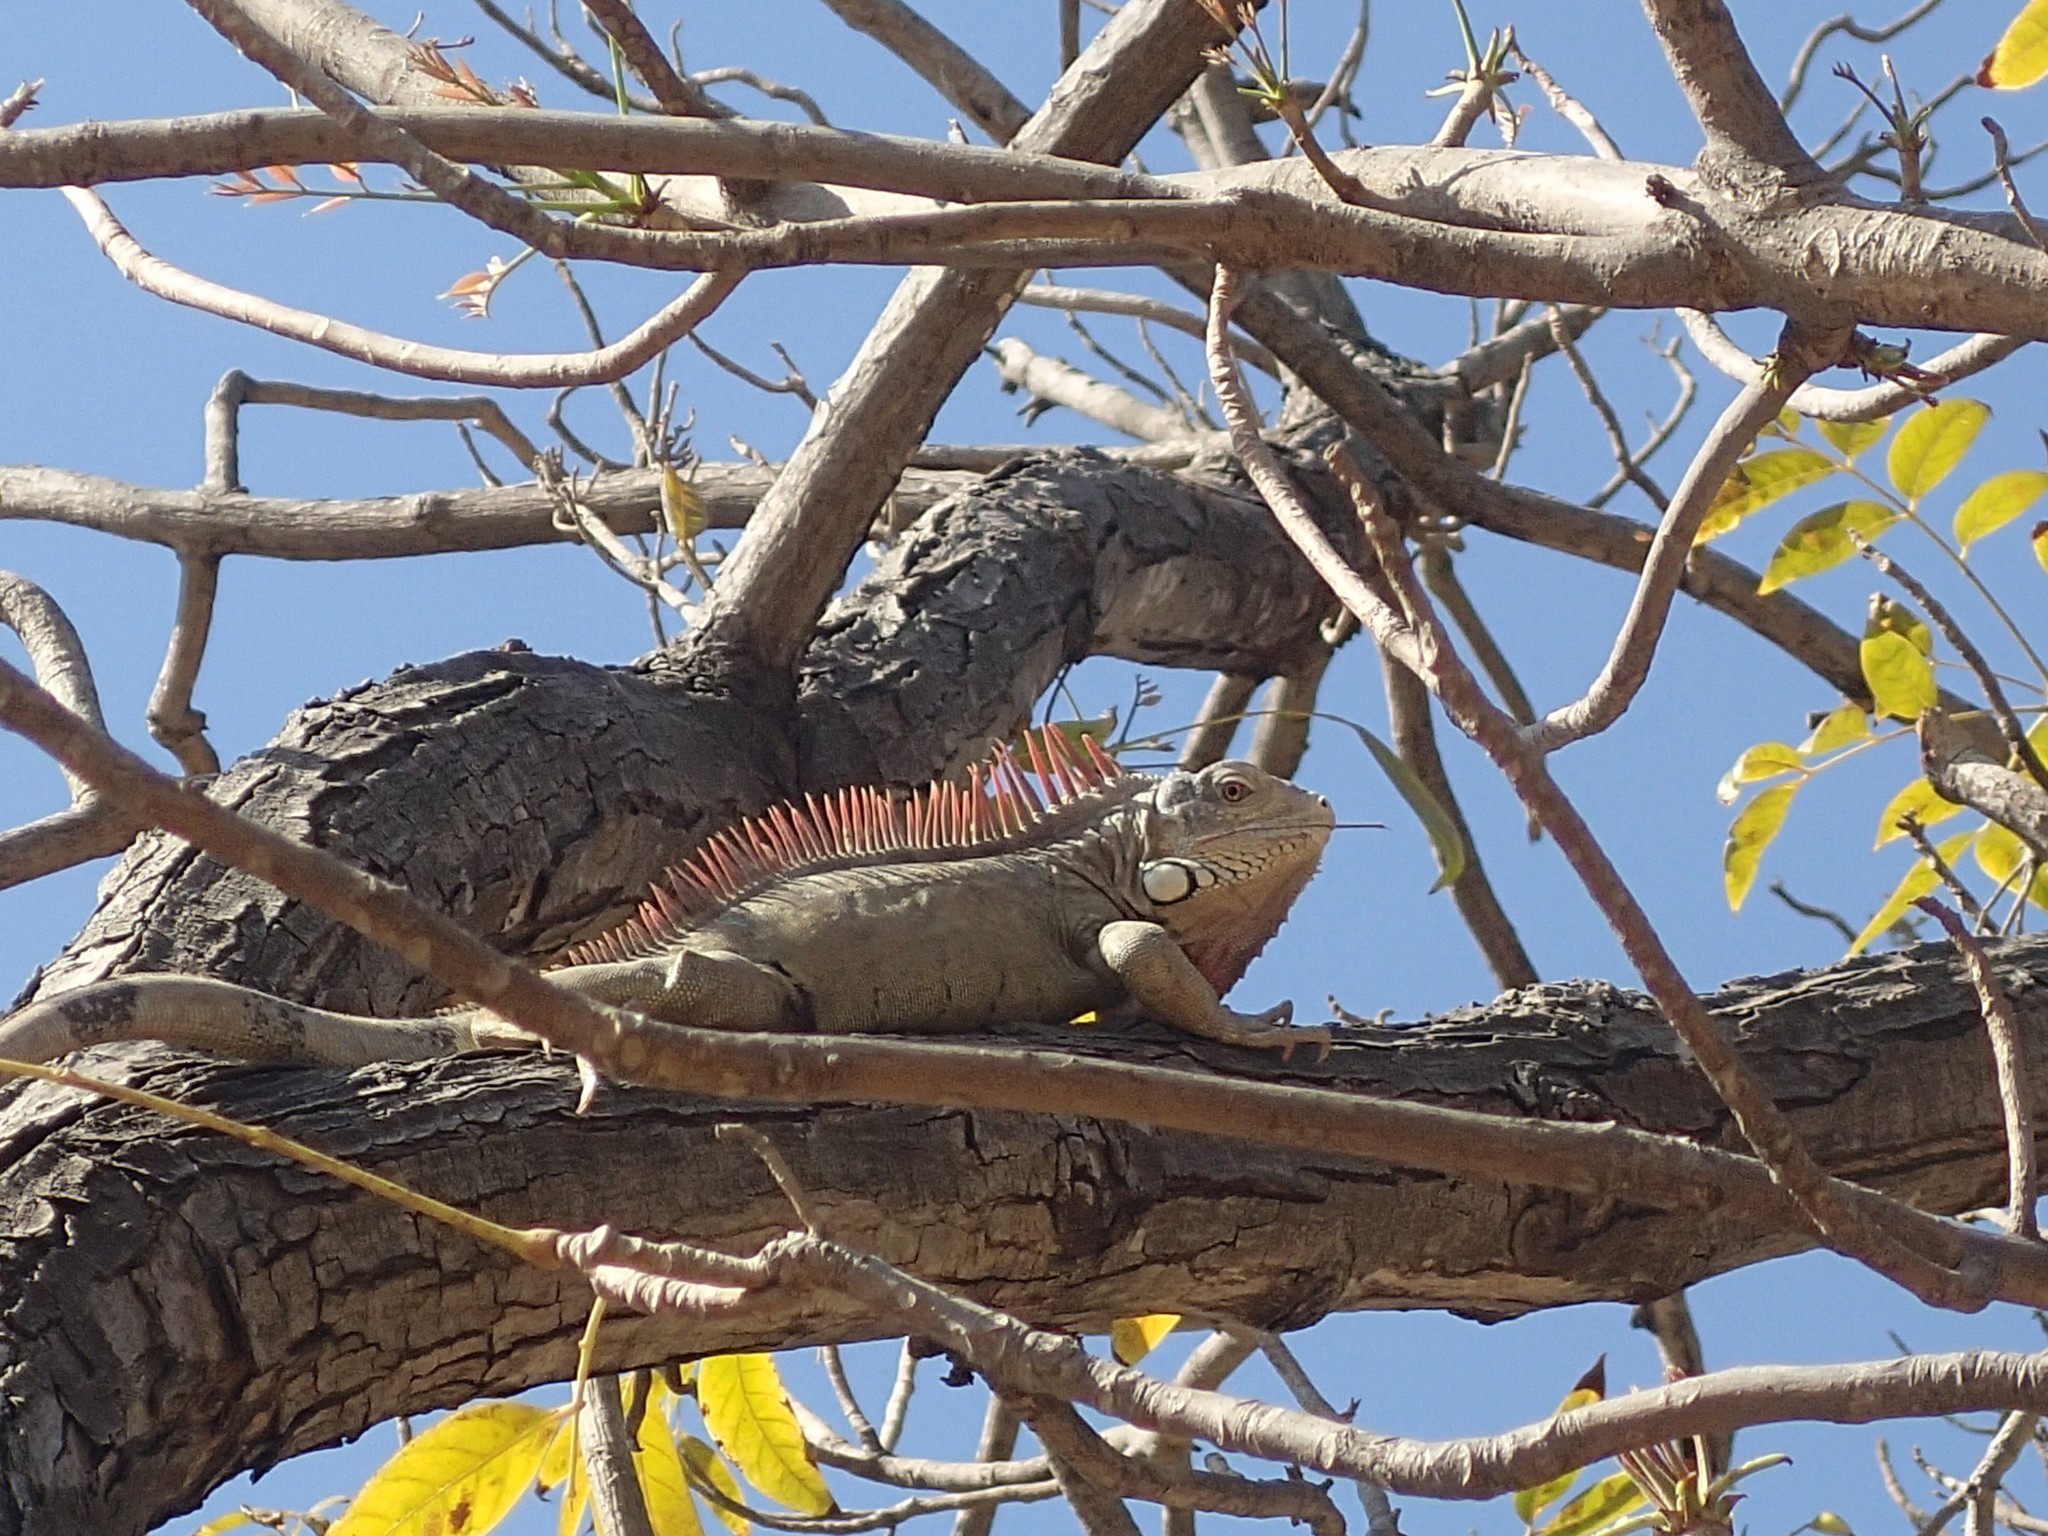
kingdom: Animalia
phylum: Chordata
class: Squamata
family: Iguanidae
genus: Iguana
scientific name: Iguana iguana
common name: Green iguana
